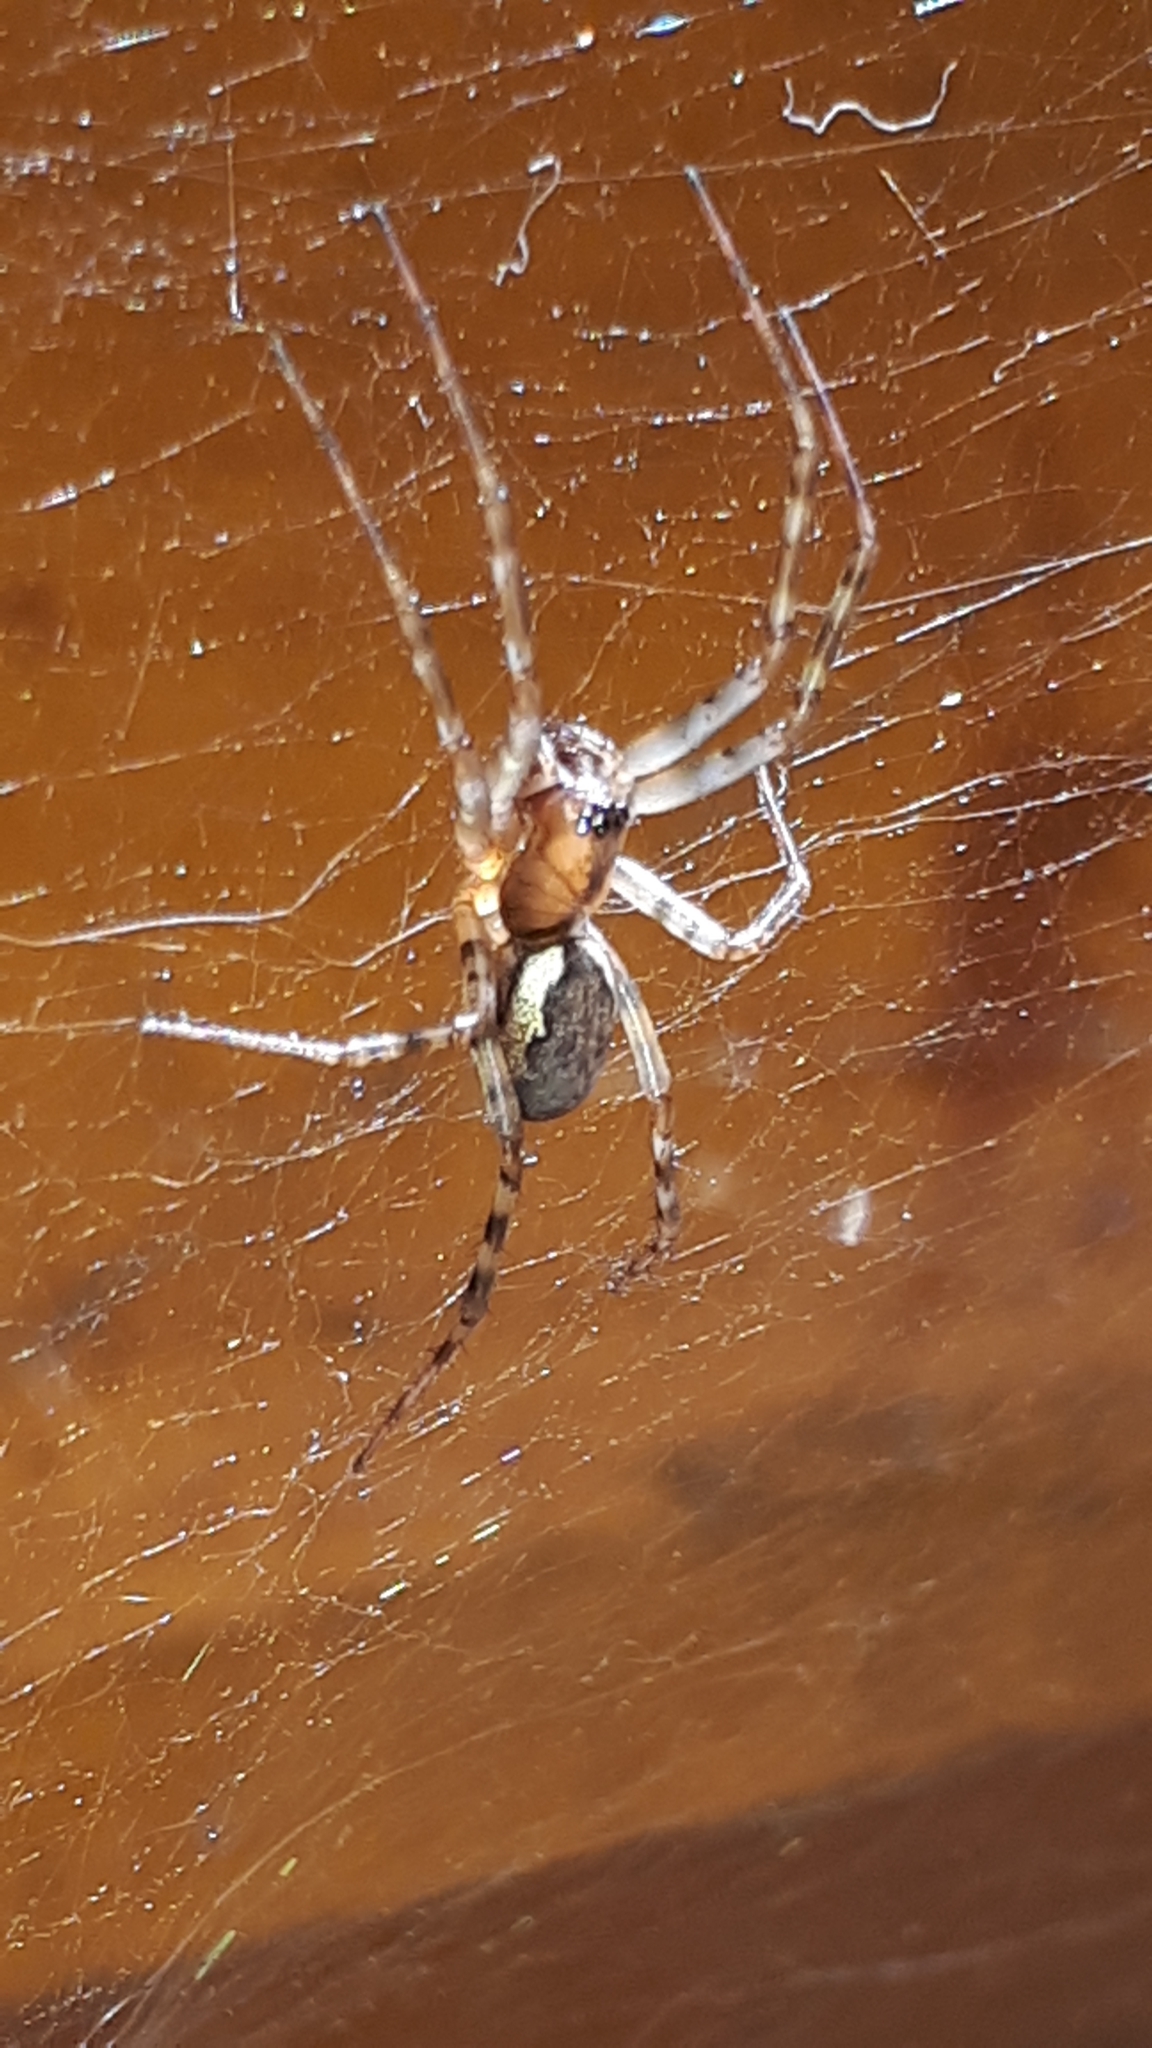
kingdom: Animalia
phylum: Arthropoda
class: Arachnida
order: Araneae
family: Linyphiidae
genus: Neriene
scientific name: Neriene montana
